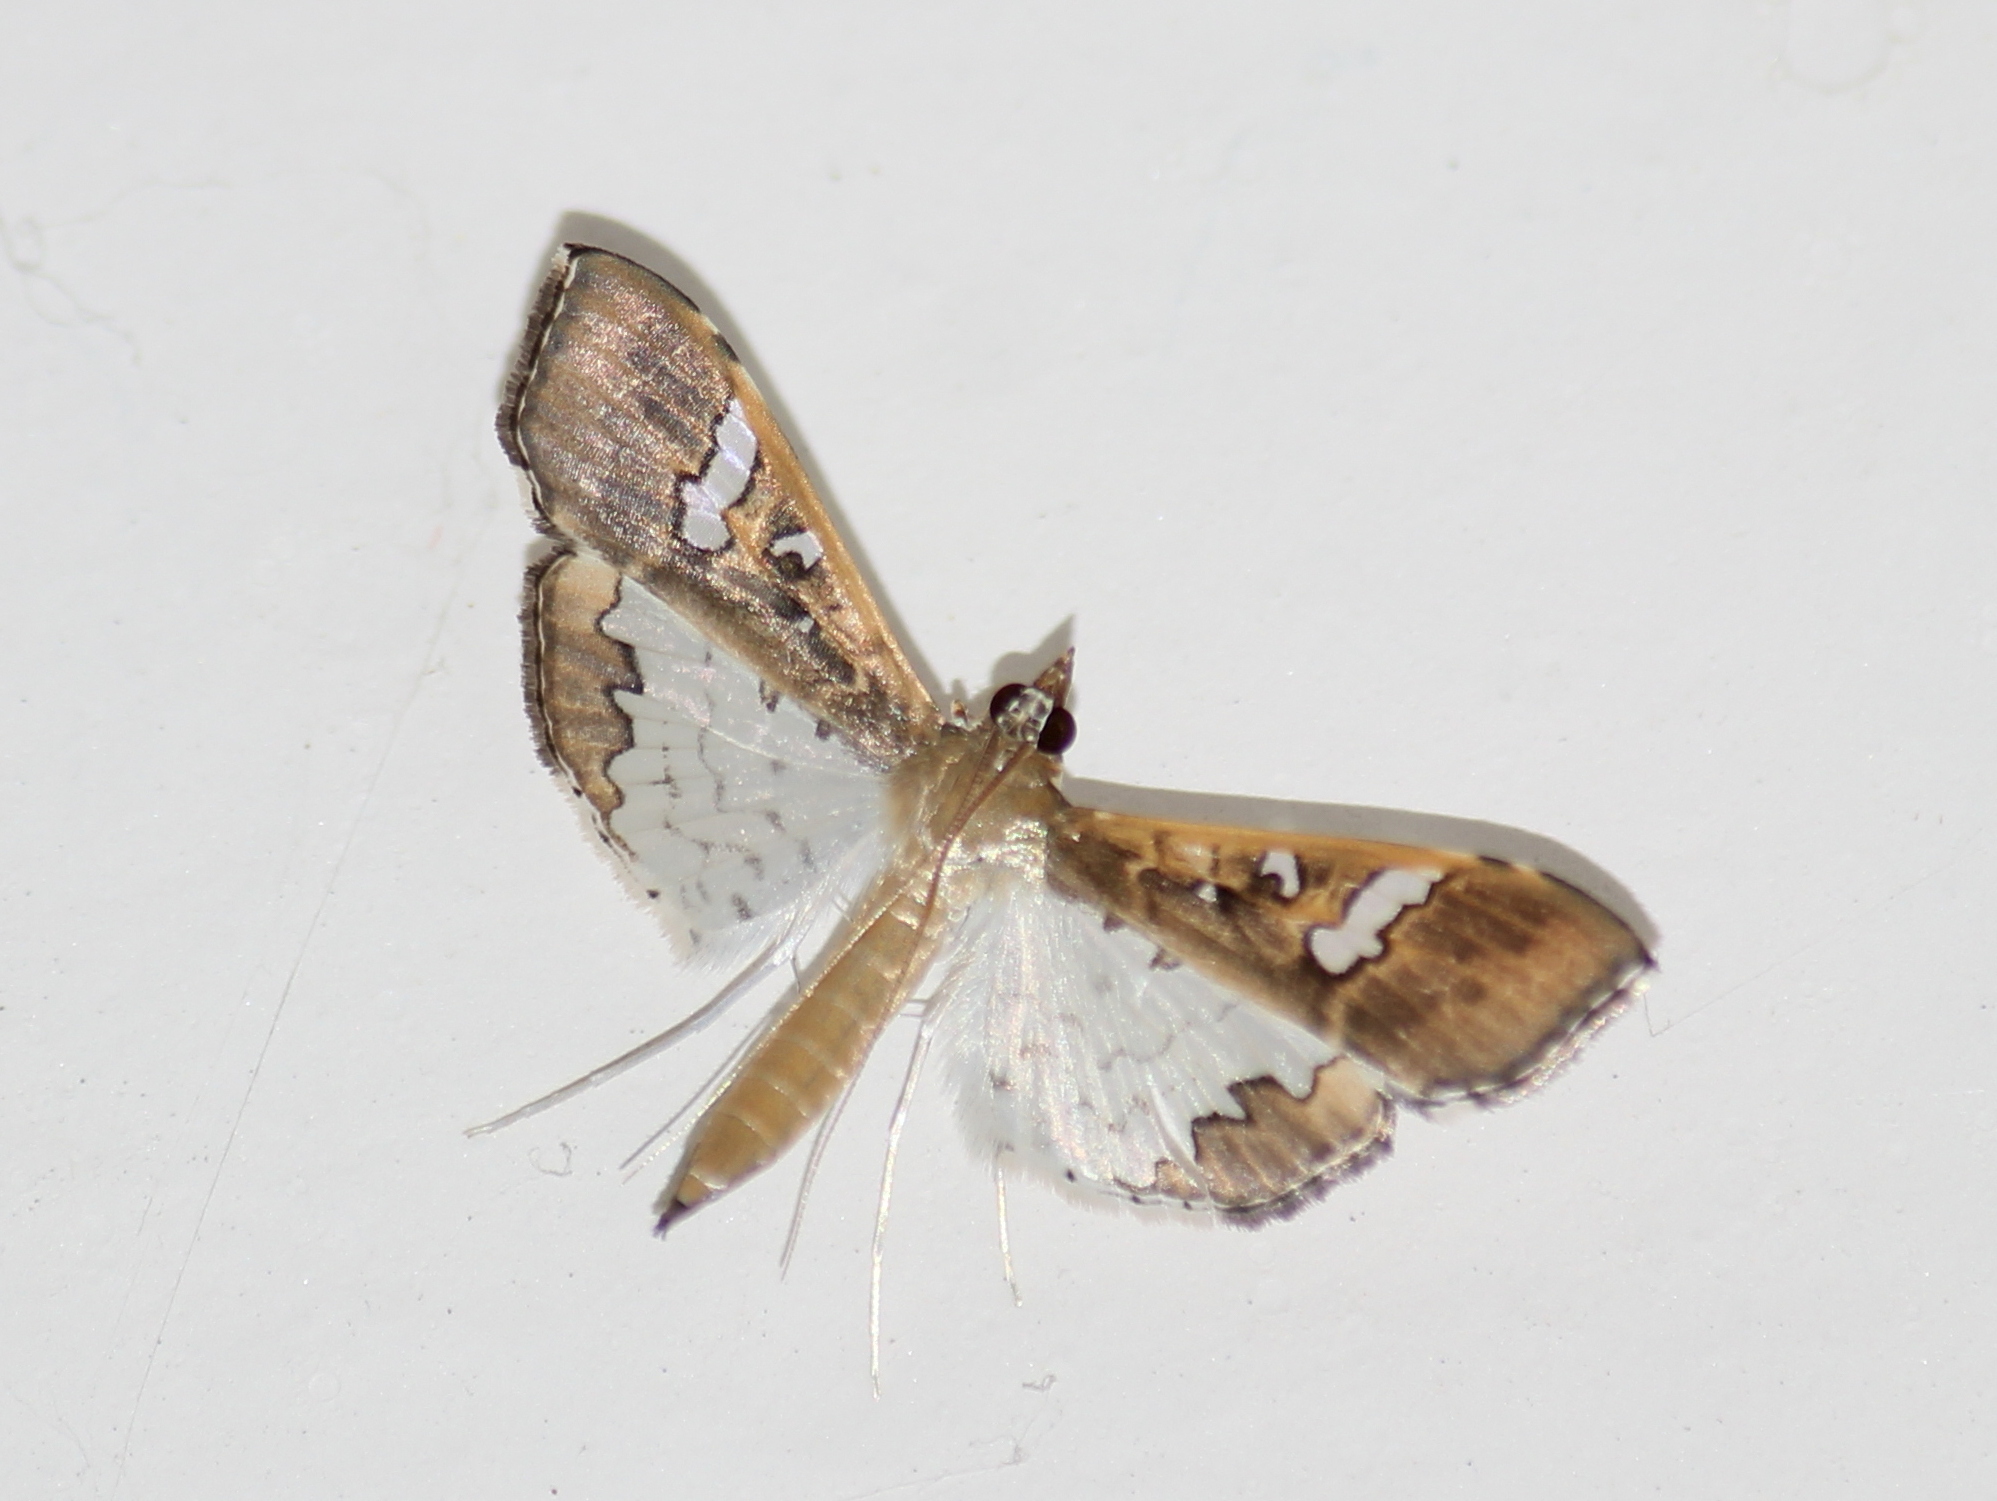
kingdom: Animalia
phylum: Arthropoda
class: Insecta
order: Lepidoptera
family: Crambidae
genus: Maruca
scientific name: Maruca vitrata
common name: Maruca pod borer
